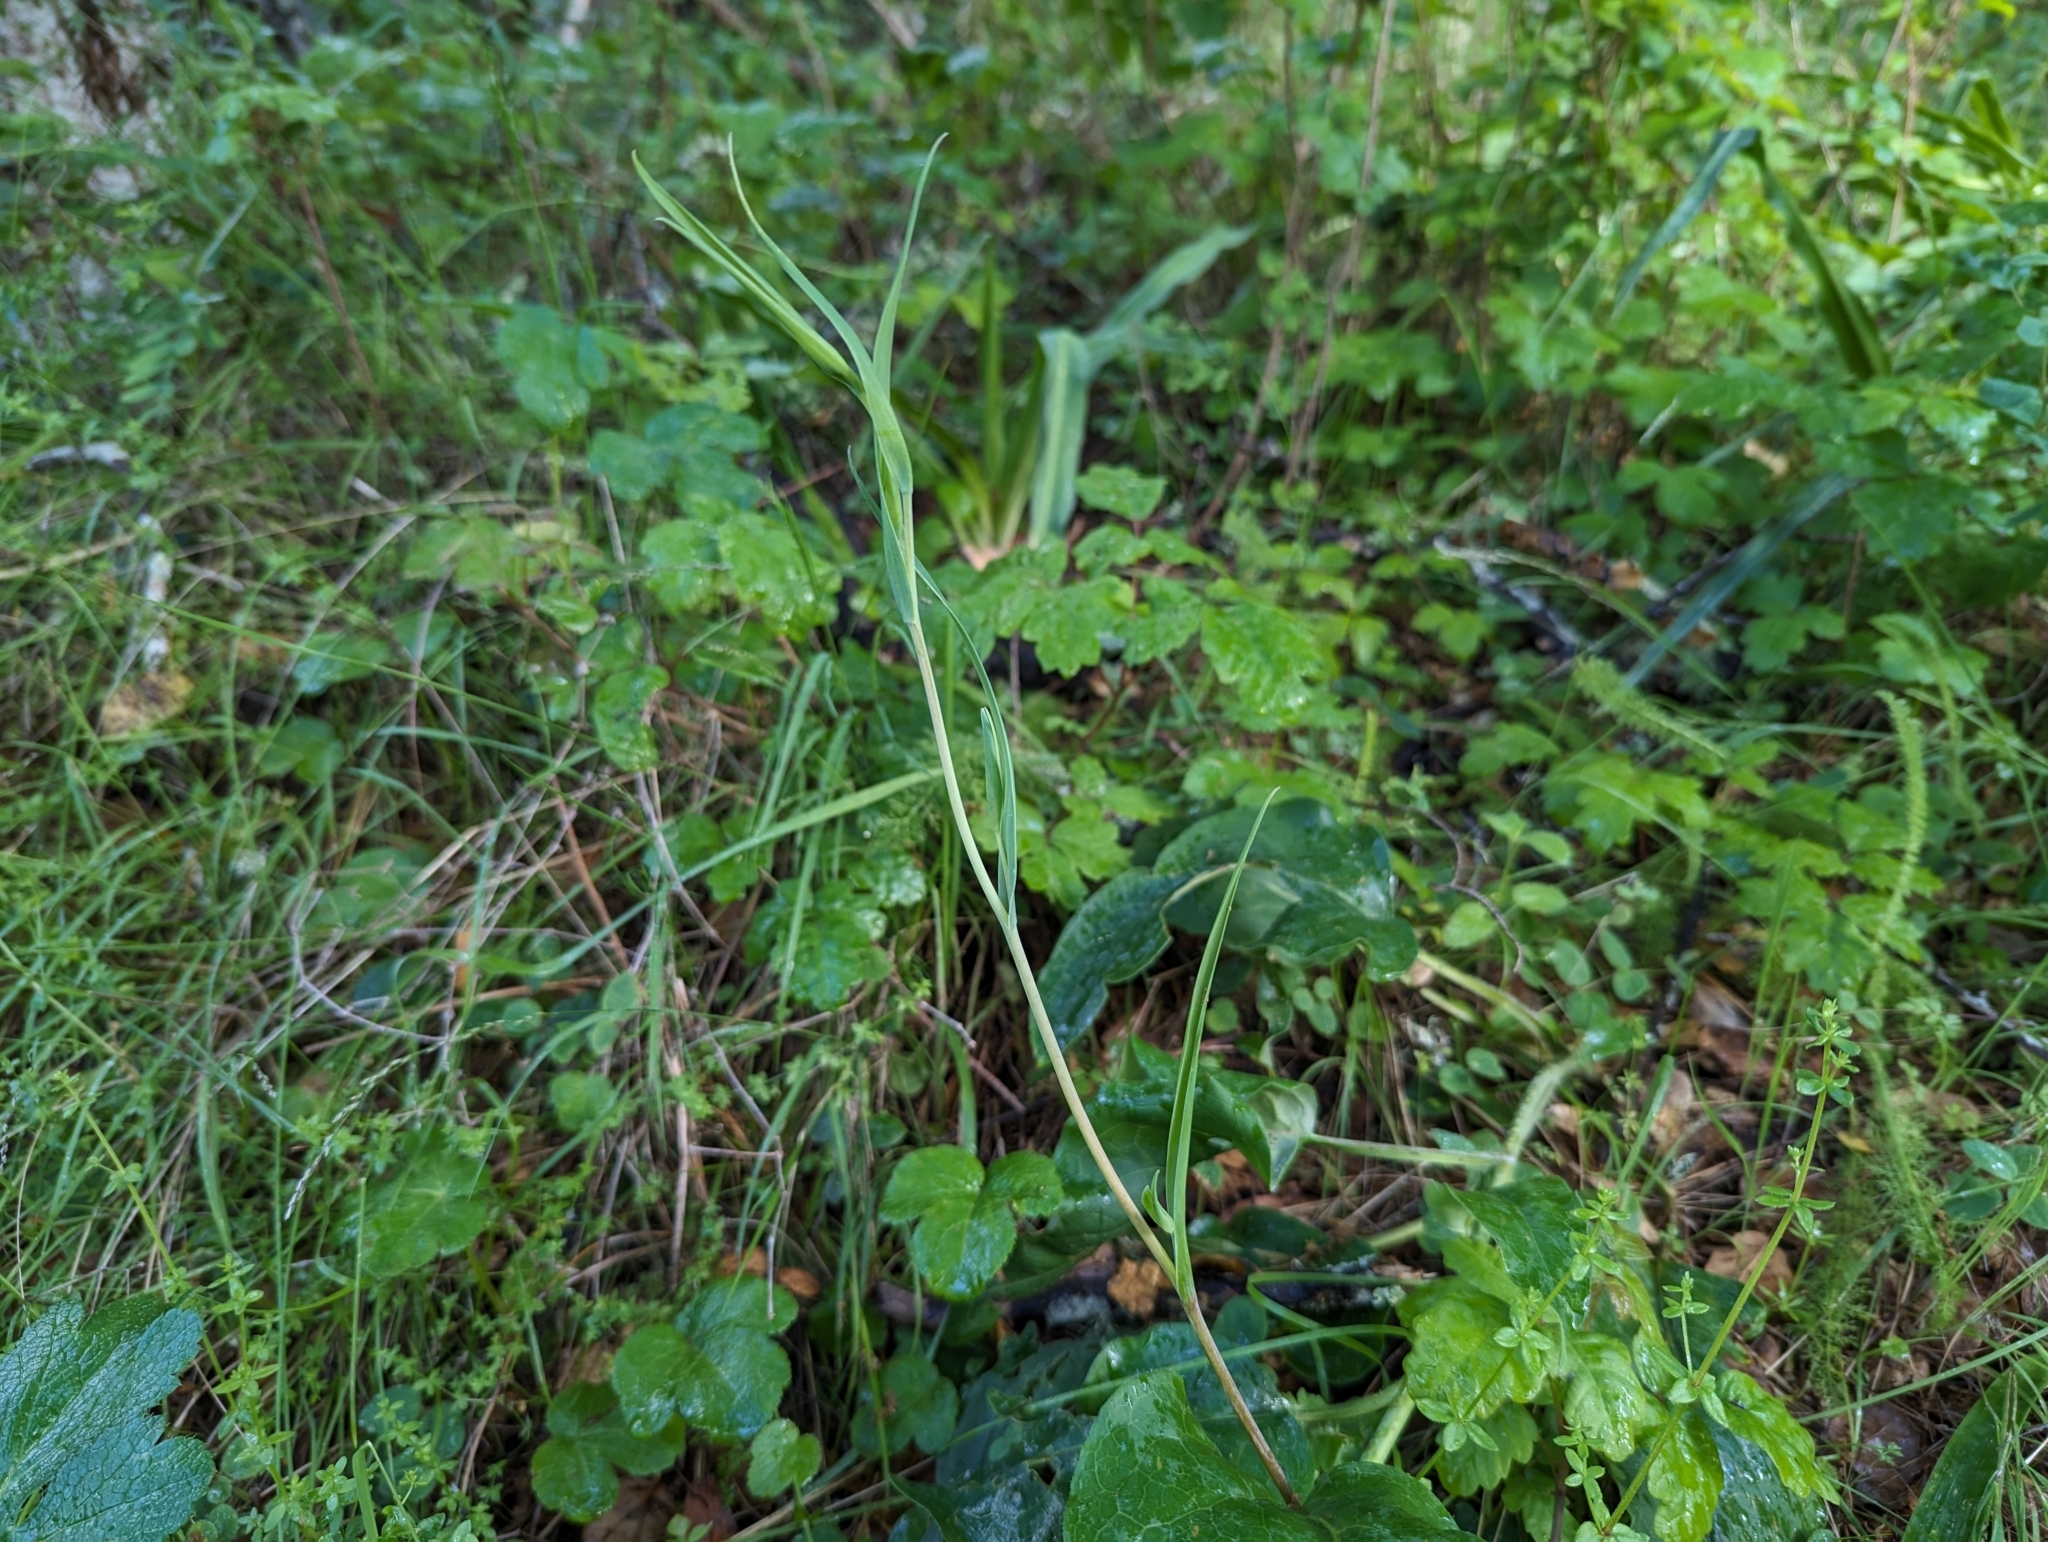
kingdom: Plantae
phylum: Tracheophyta
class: Liliopsida
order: Liliales
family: Liliaceae
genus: Calochortus
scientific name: Calochortus albus
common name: Fairy-lantern
